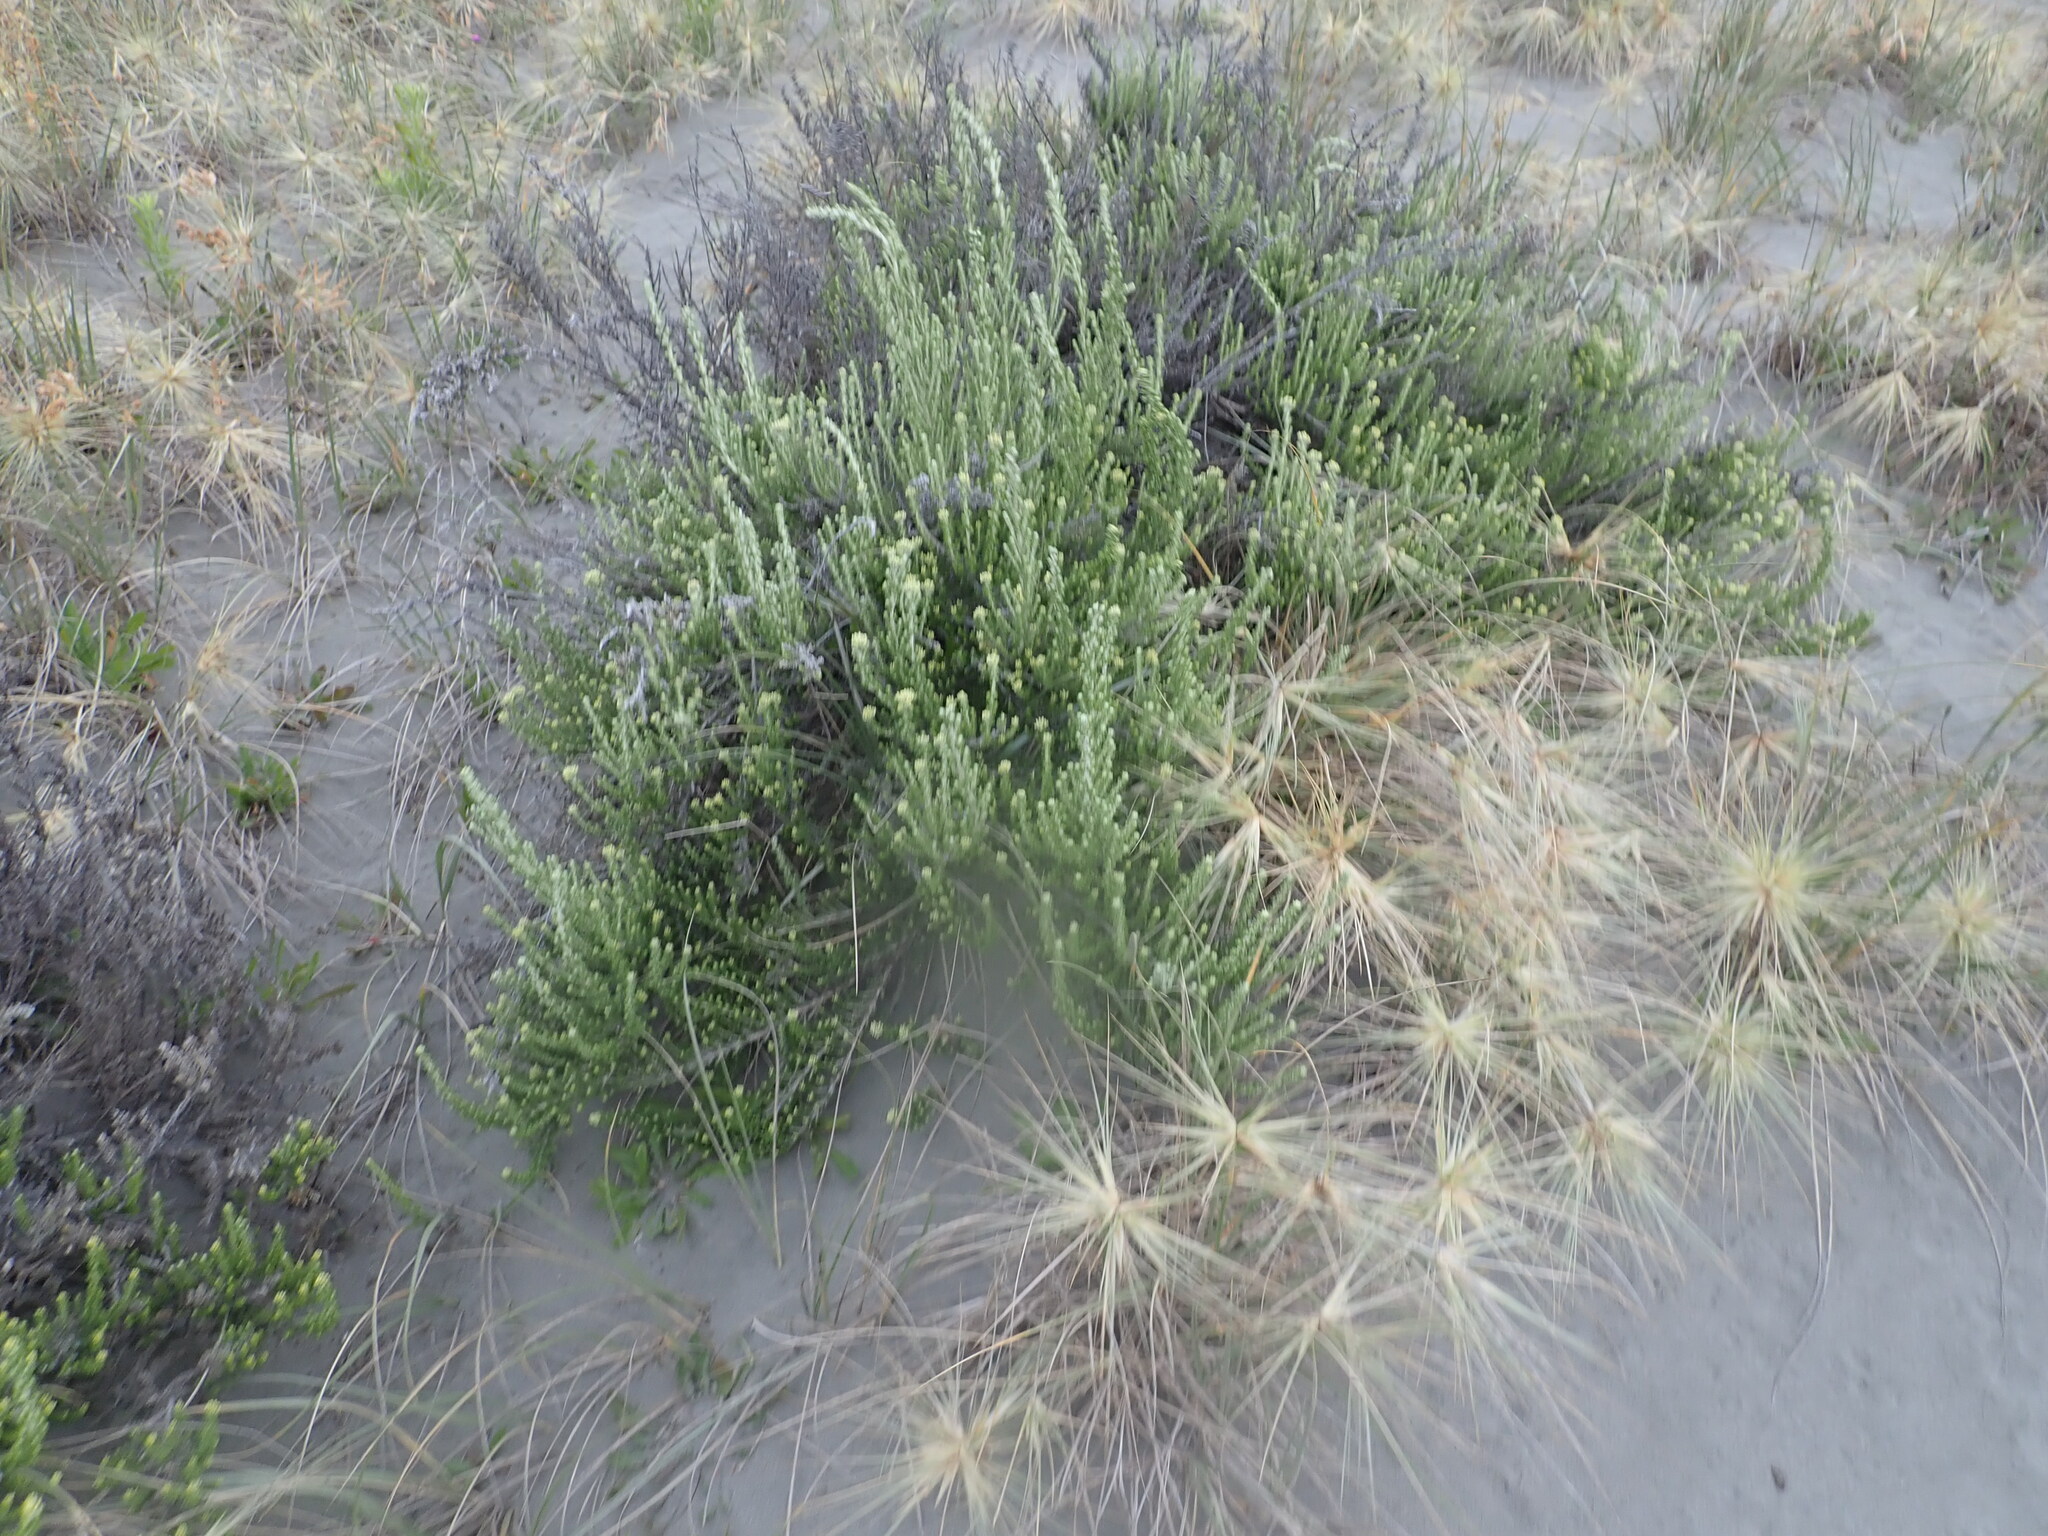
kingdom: Plantae
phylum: Tracheophyta
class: Magnoliopsida
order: Asterales
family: Asteraceae
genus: Ozothamnus
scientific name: Ozothamnus leptophyllus
